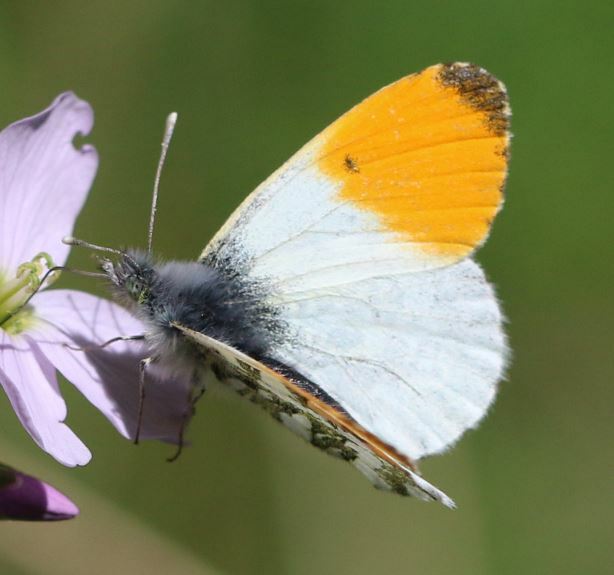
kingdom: Animalia
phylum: Arthropoda
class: Insecta
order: Lepidoptera
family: Pieridae
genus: Anthocharis
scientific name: Anthocharis cardamines
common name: Orange-tip
